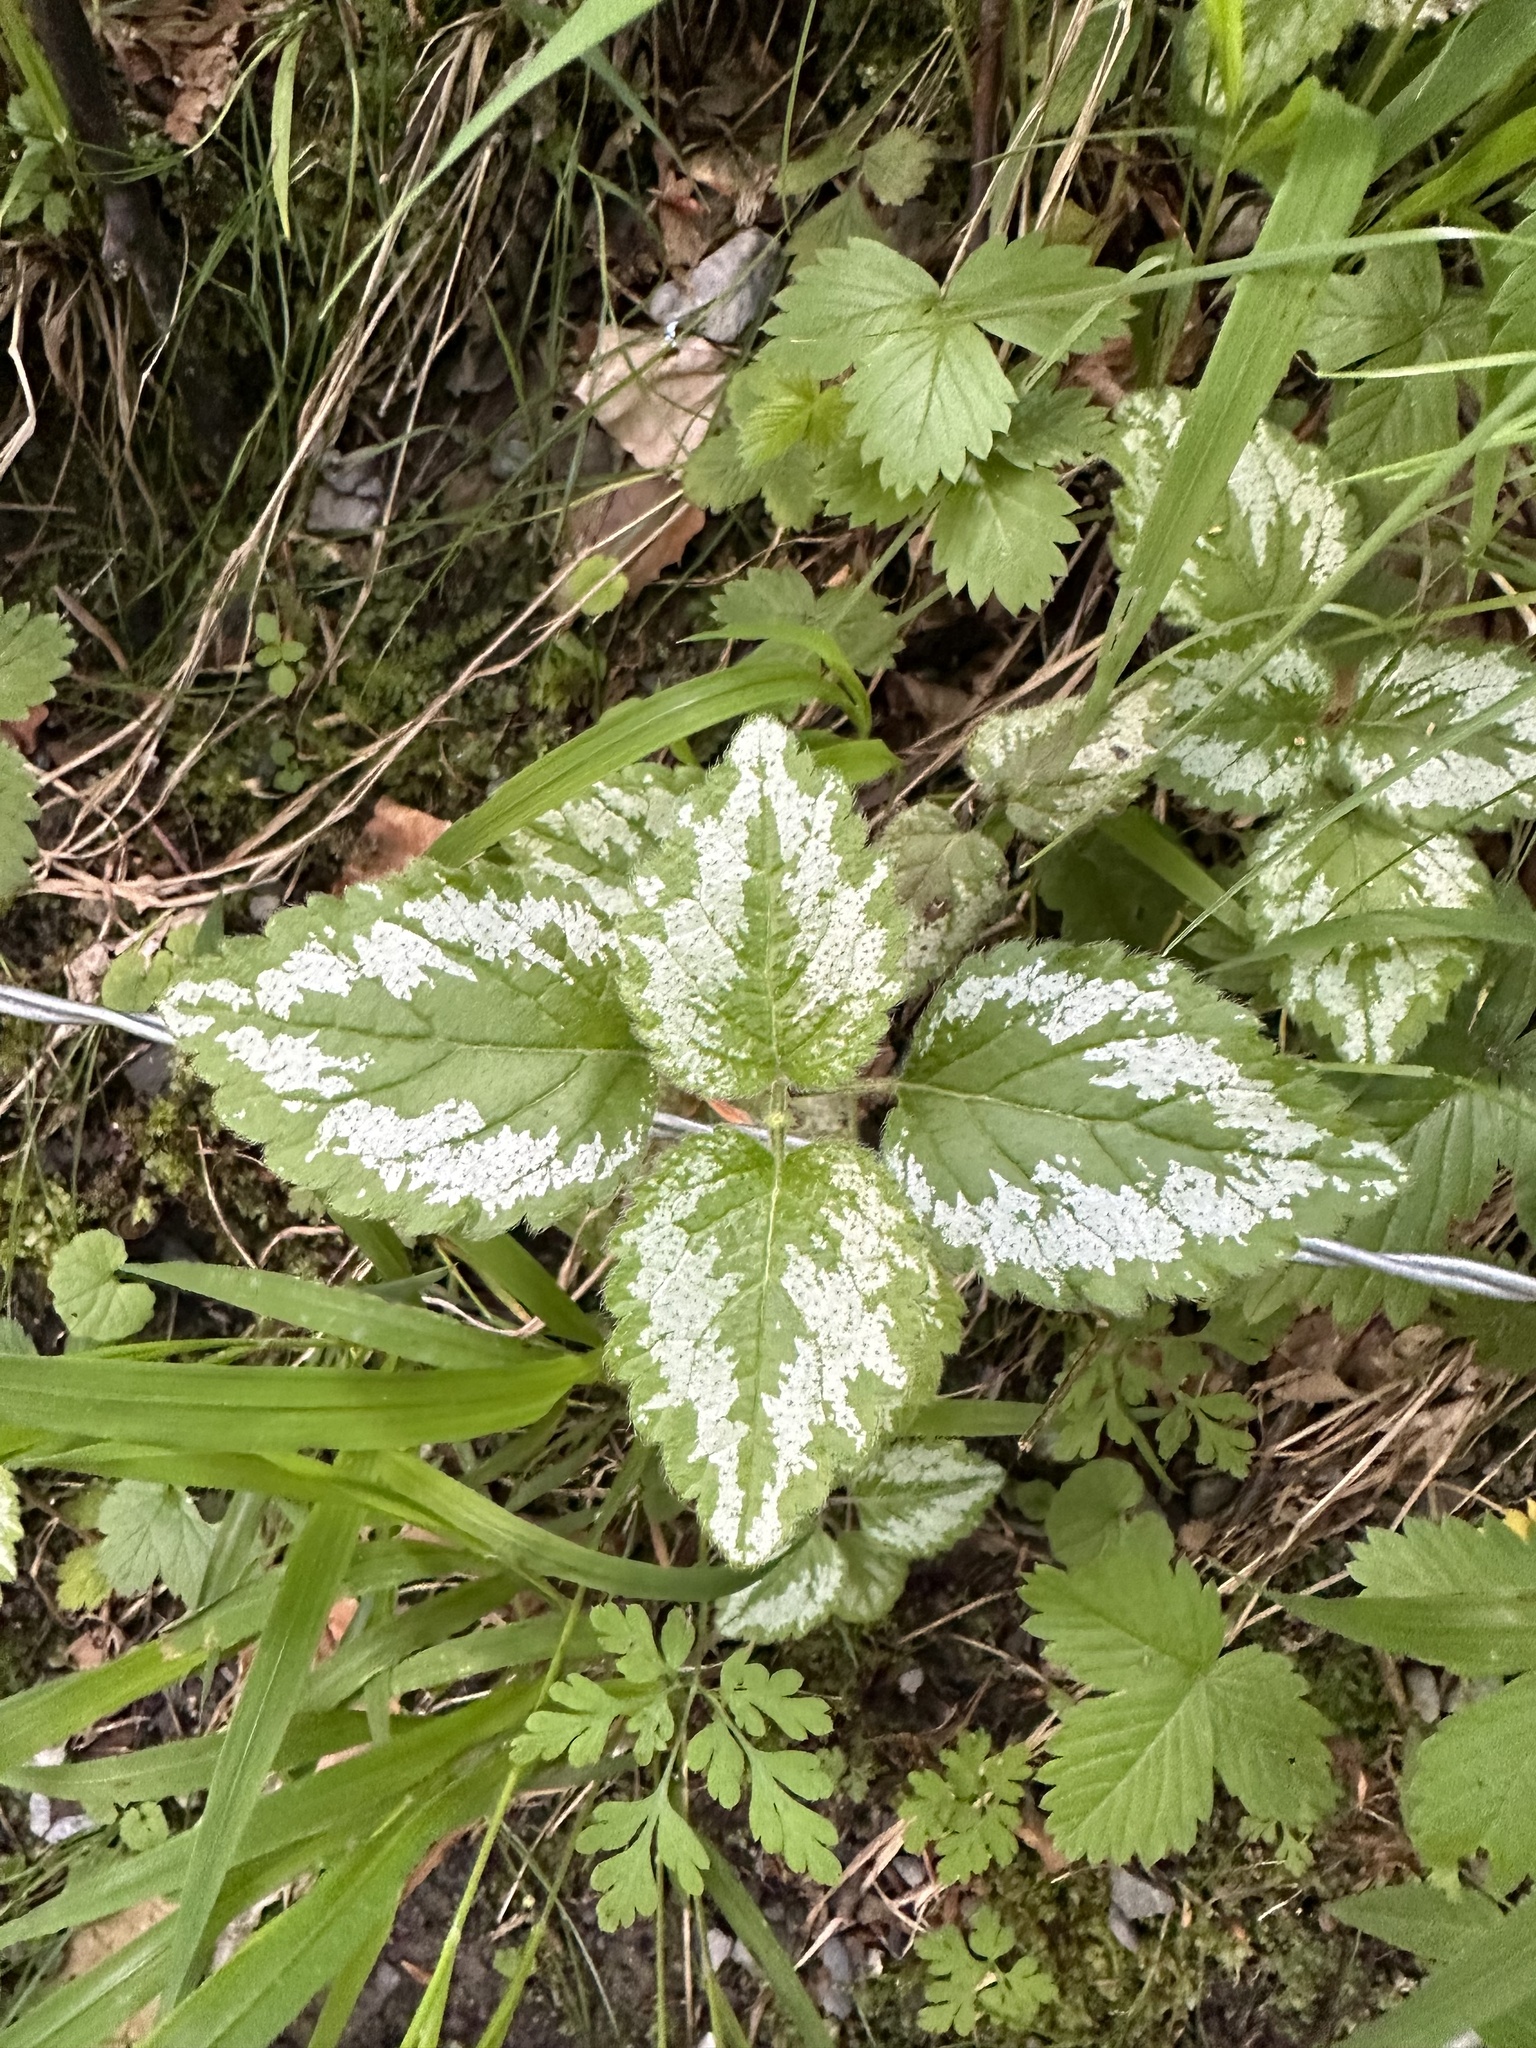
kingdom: Plantae
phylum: Tracheophyta
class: Magnoliopsida
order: Lamiales
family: Lamiaceae
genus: Lamium
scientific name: Lamium galeobdolon
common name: Yellow archangel
